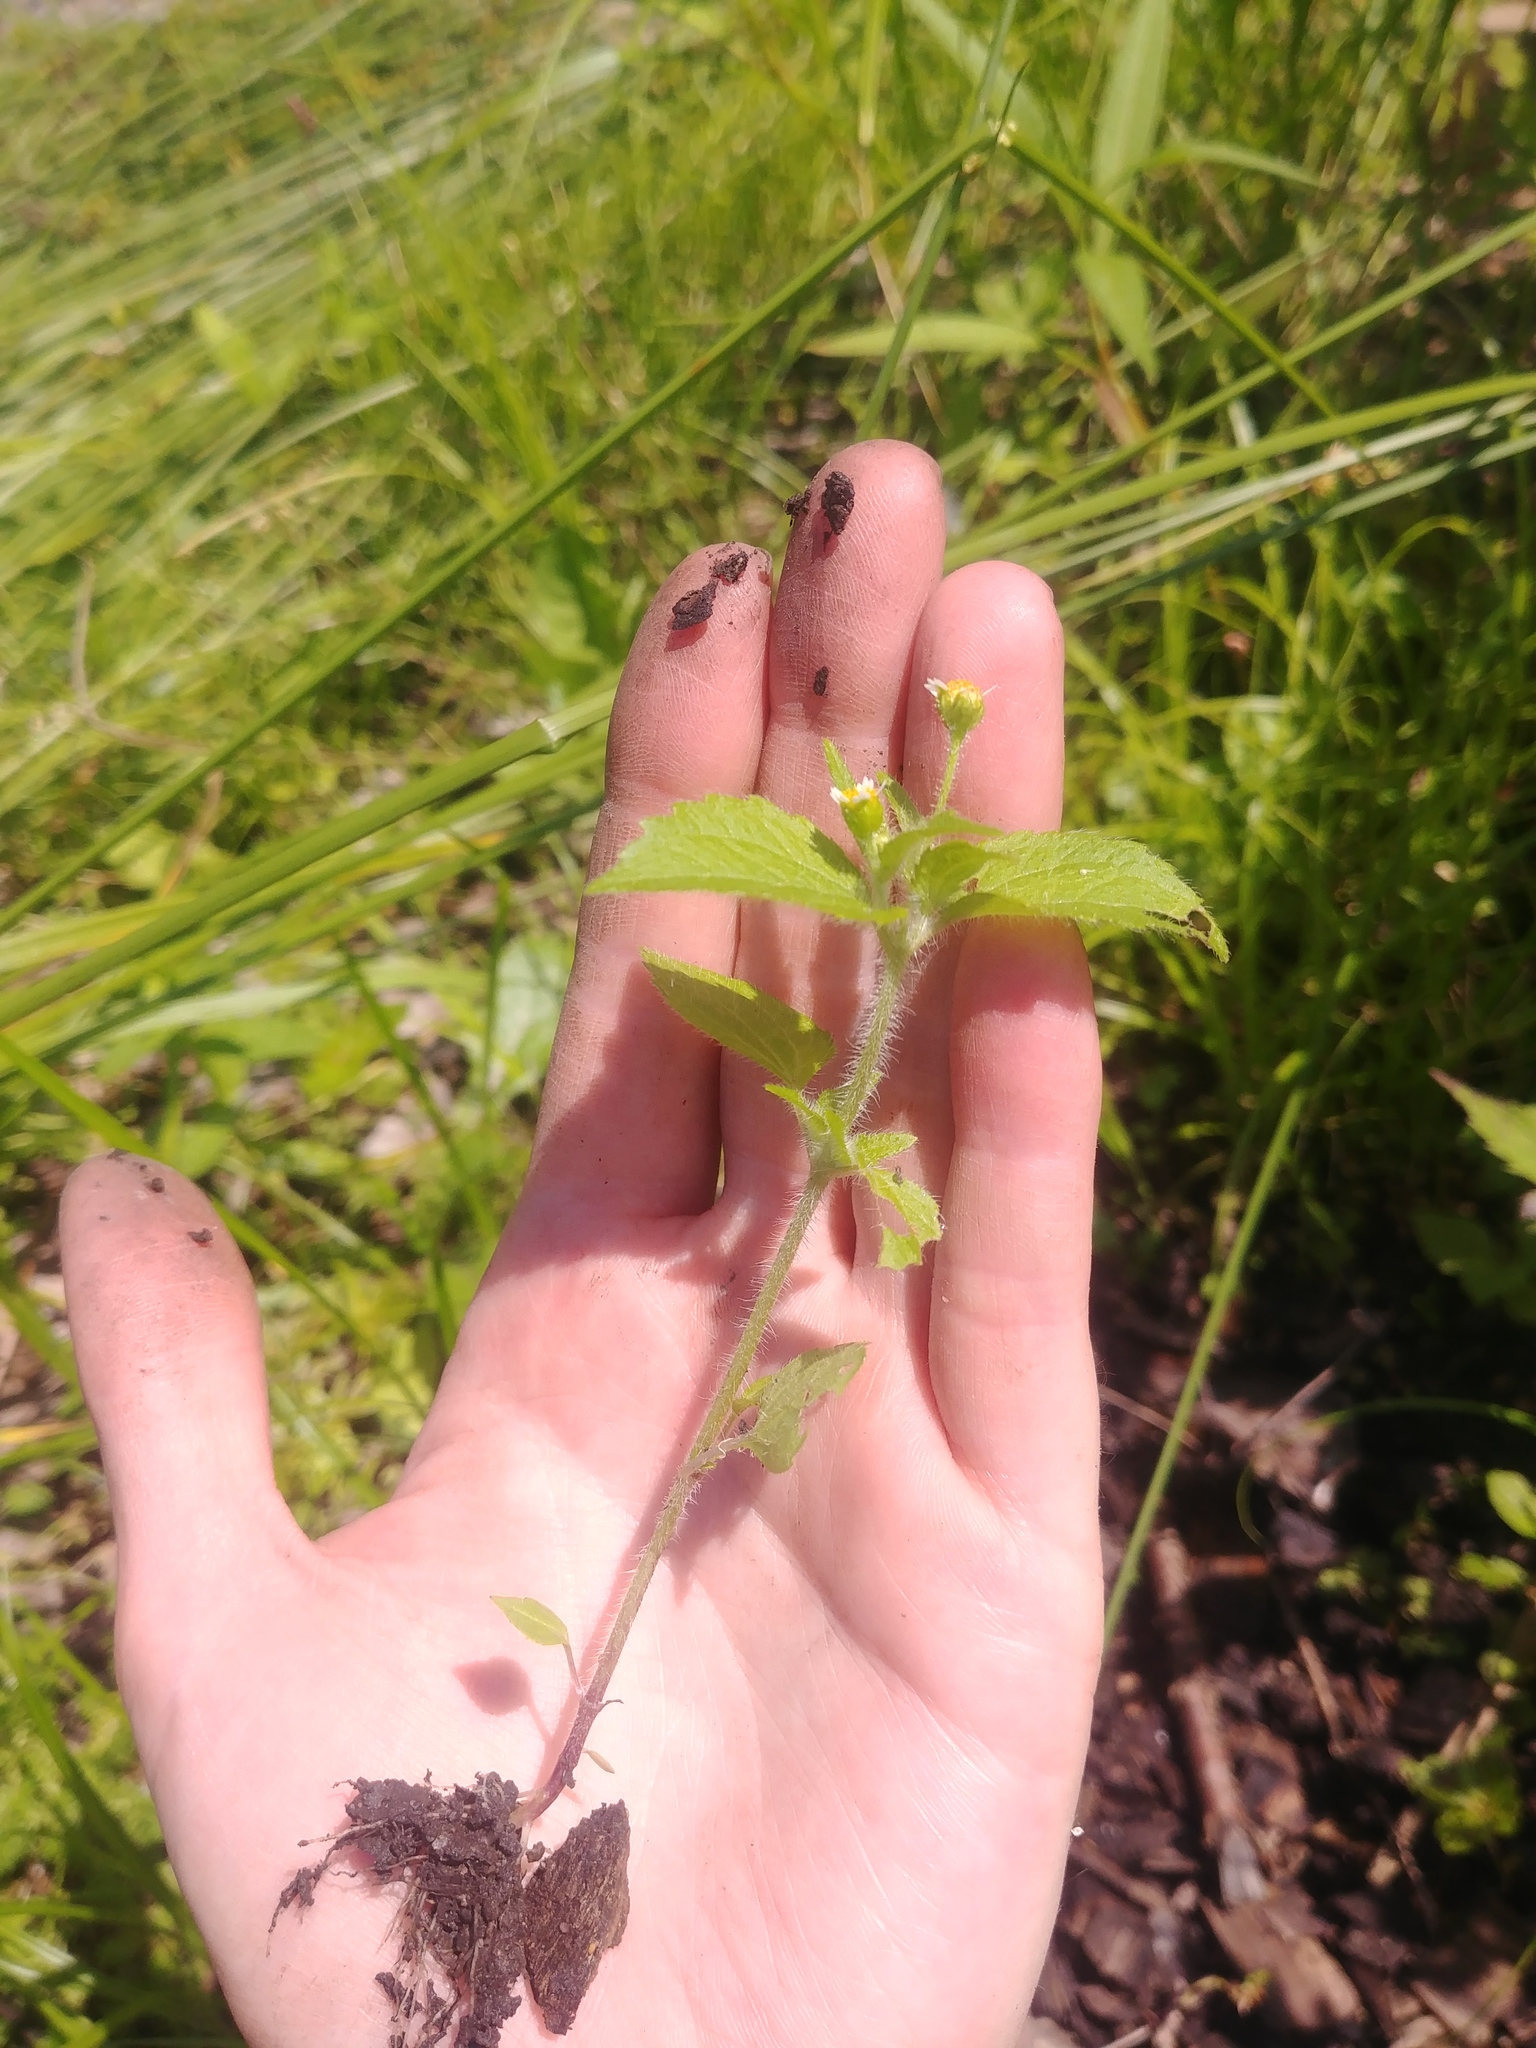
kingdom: Plantae
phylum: Tracheophyta
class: Magnoliopsida
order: Asterales
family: Asteraceae
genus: Galinsoga
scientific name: Galinsoga quadriradiata
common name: Shaggy soldier
